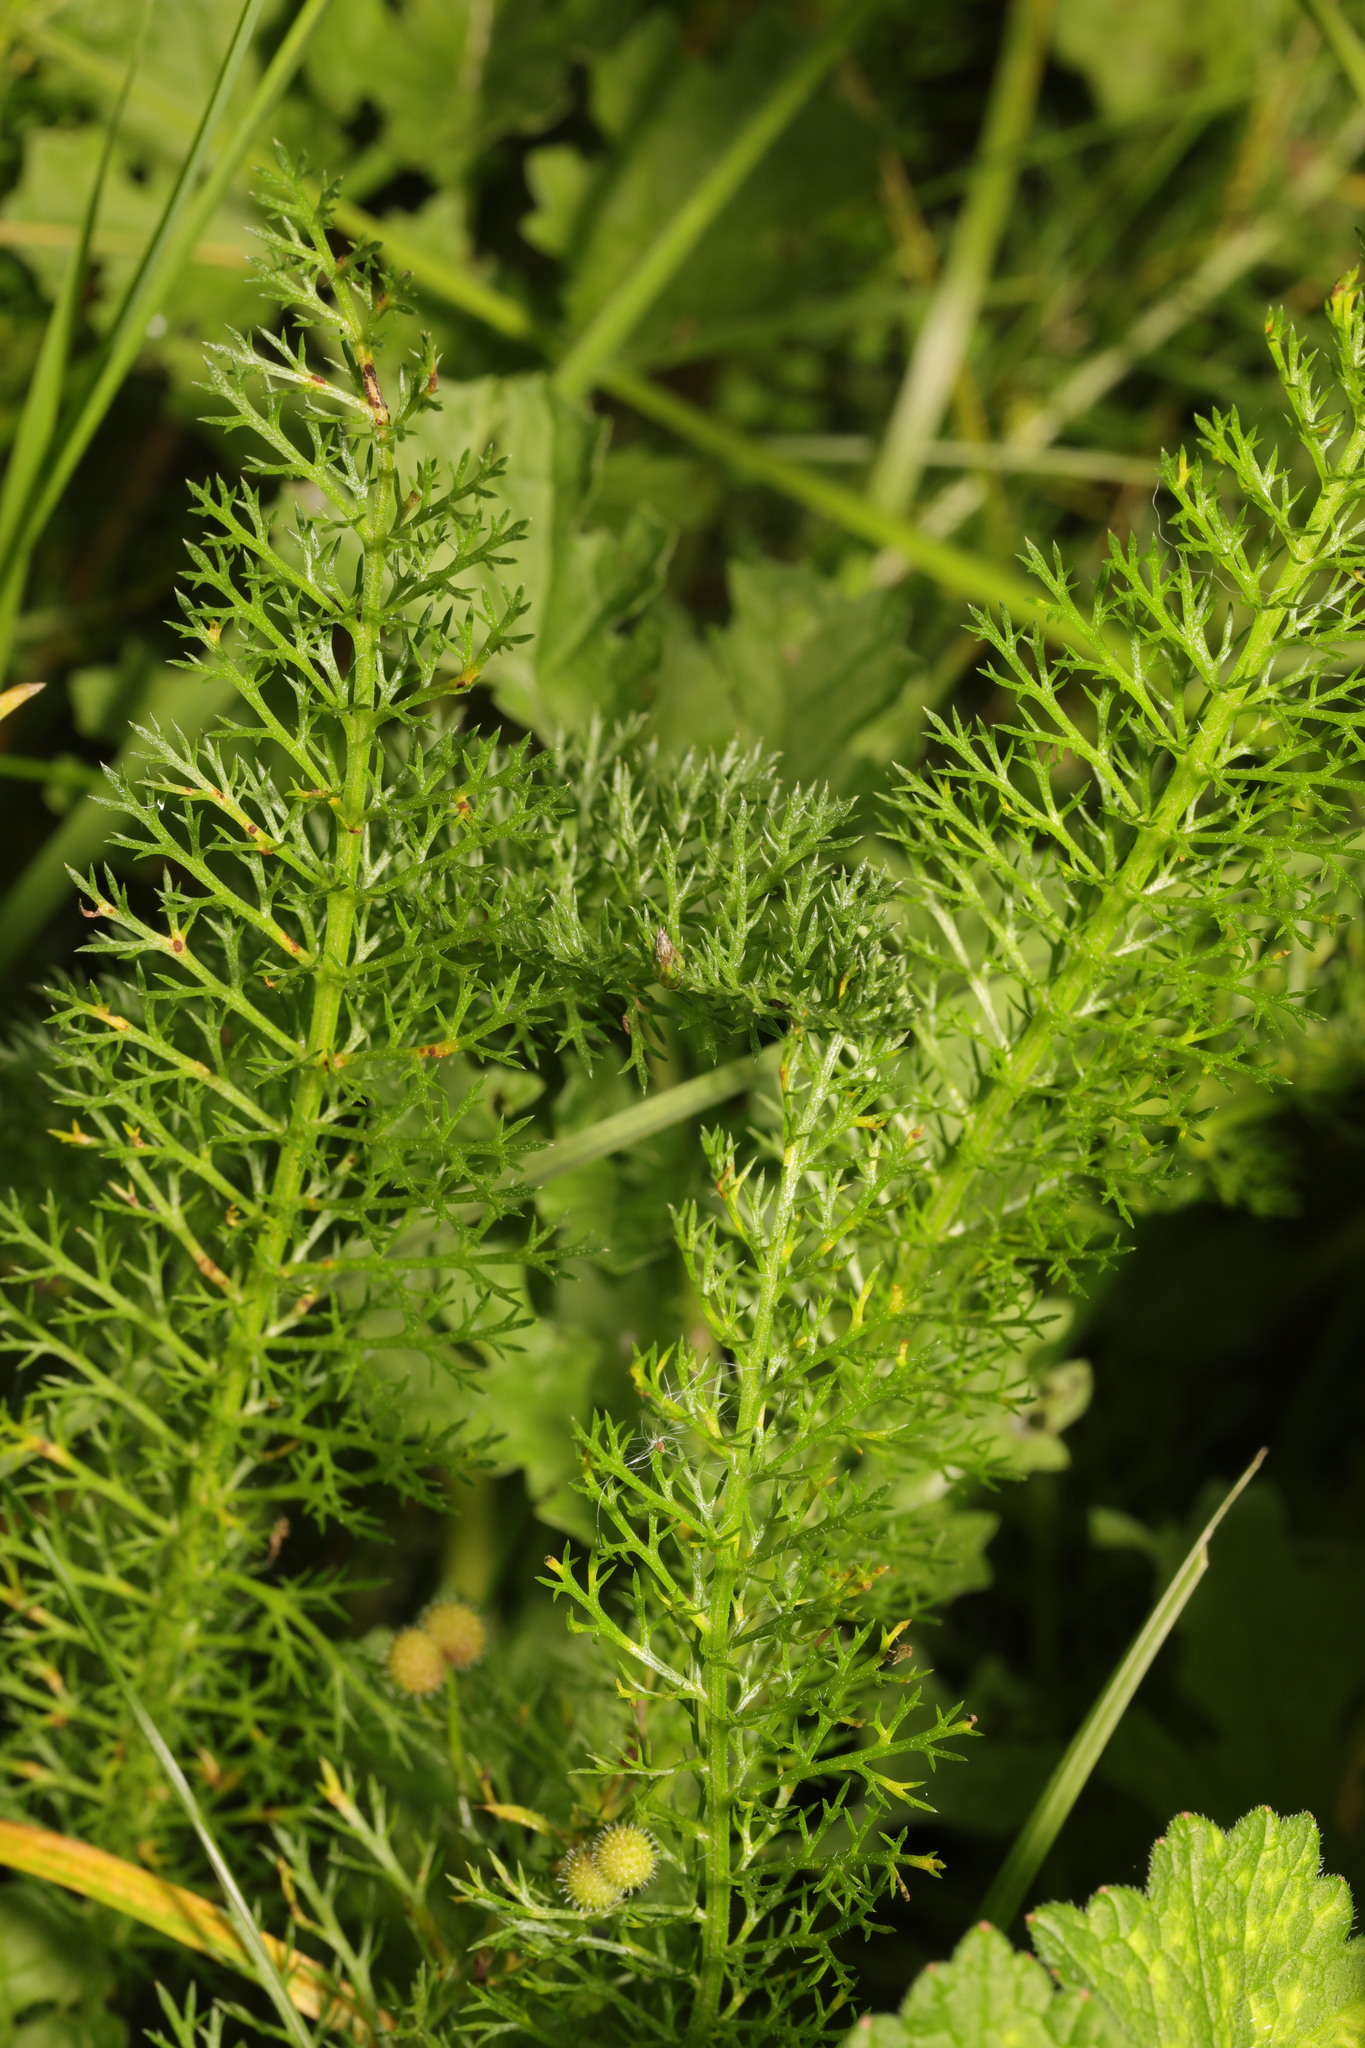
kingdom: Plantae
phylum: Tracheophyta
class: Magnoliopsida
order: Asterales
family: Asteraceae
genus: Achillea
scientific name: Achillea millefolium
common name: Yarrow
